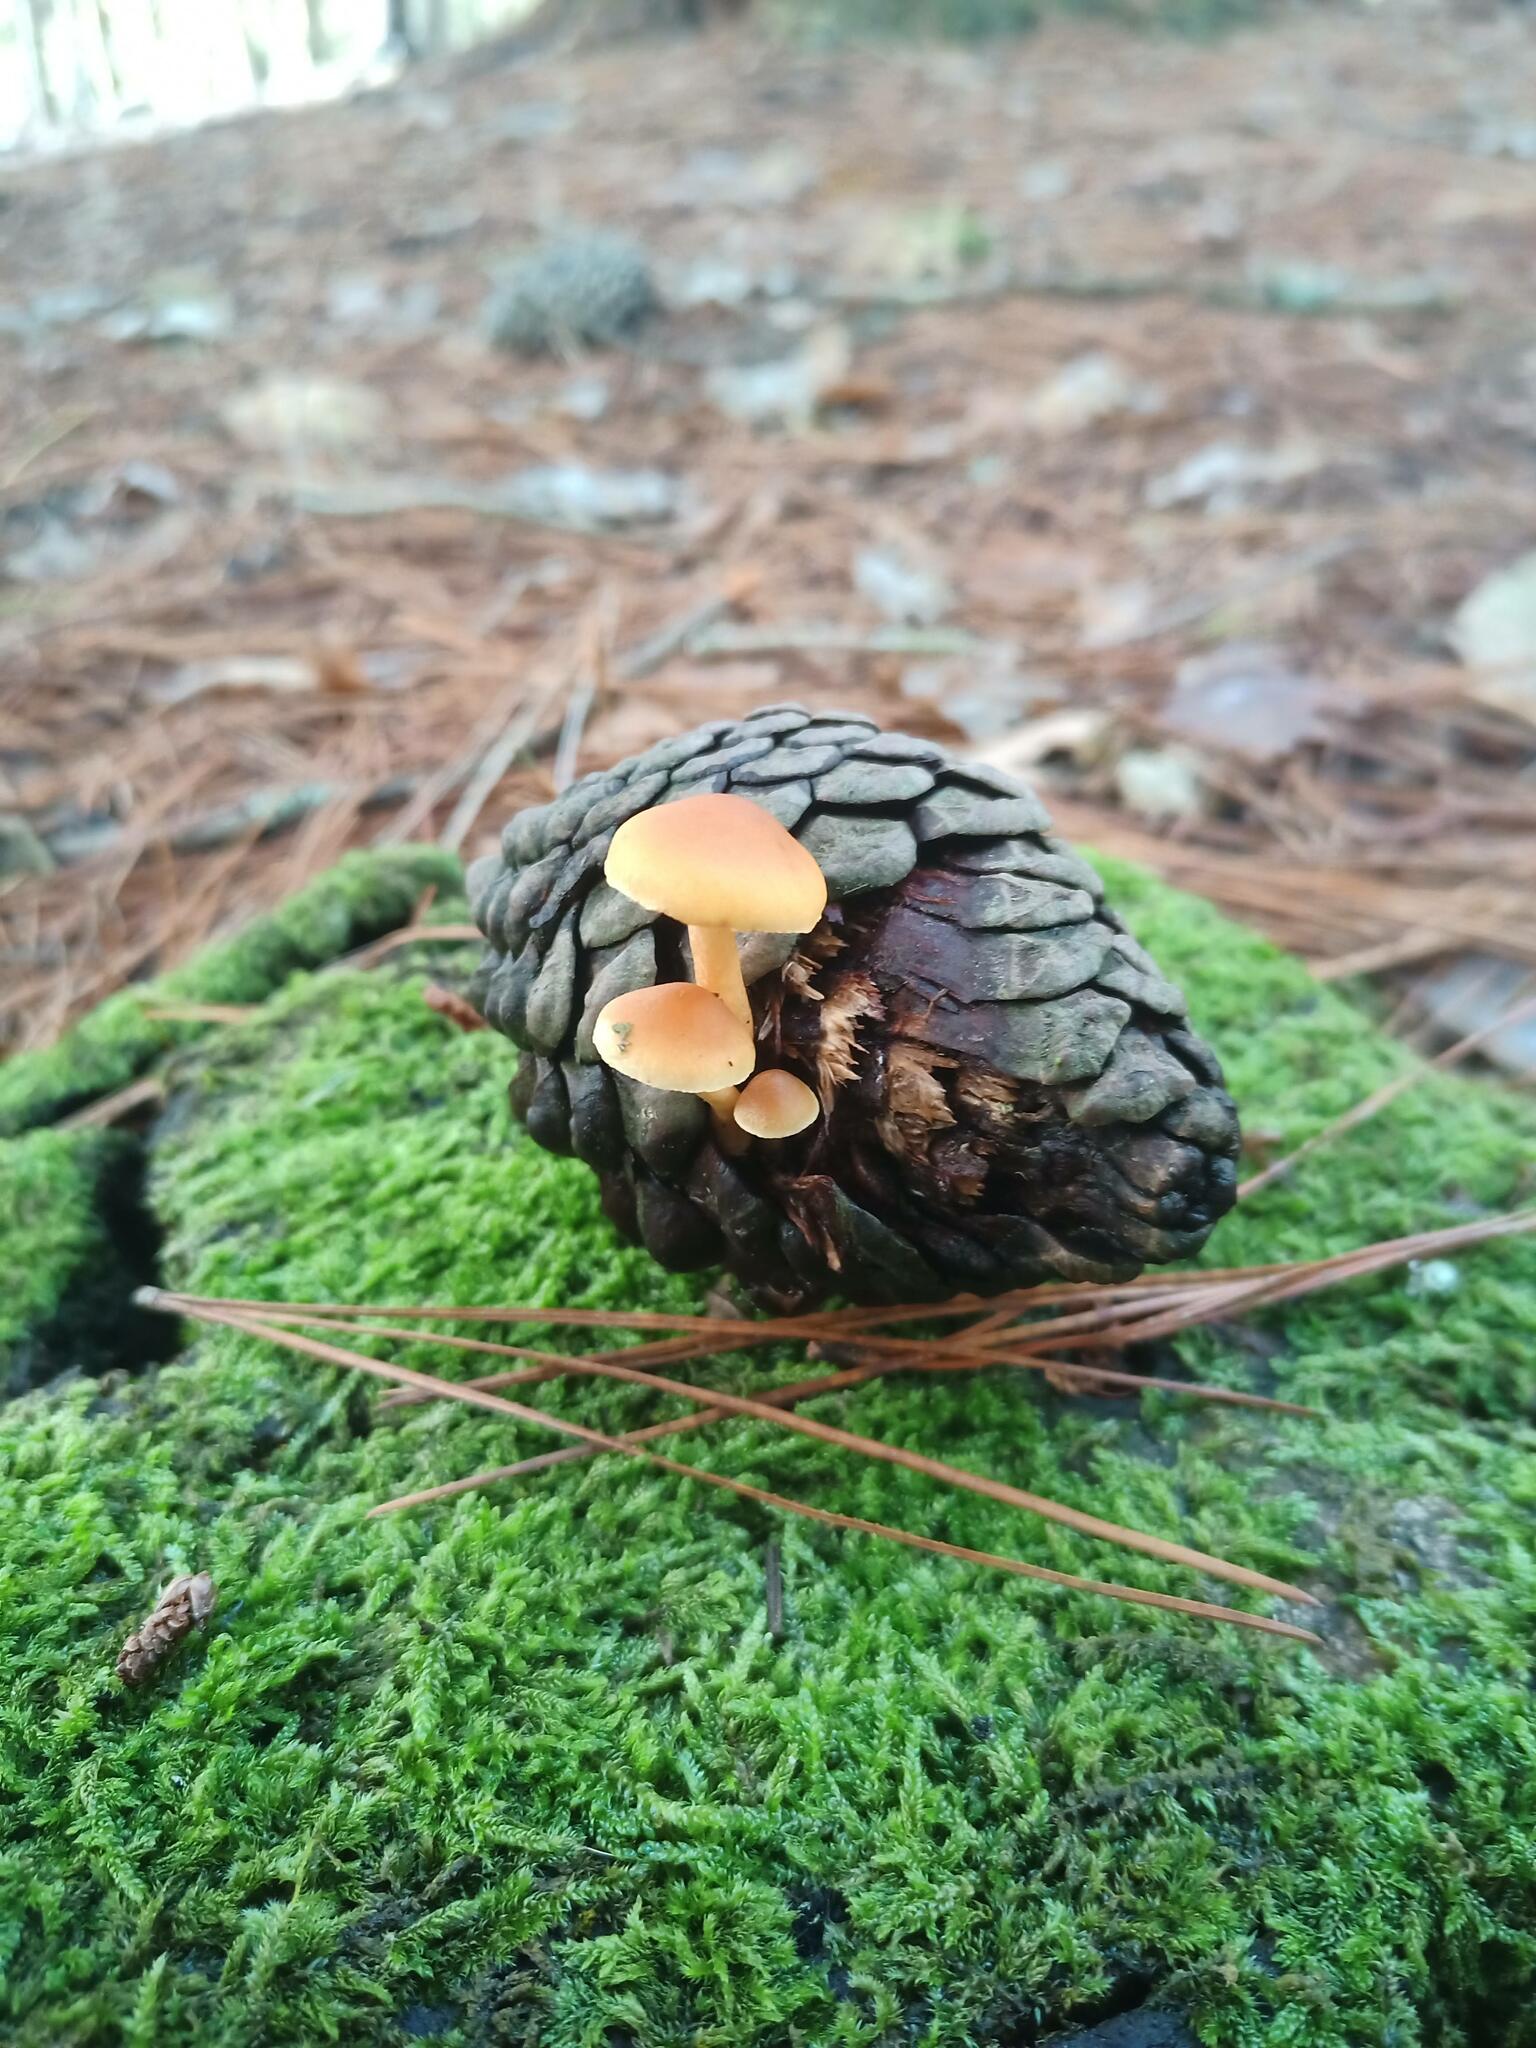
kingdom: Fungi
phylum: Basidiomycota
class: Agaricomycetes
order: Agaricales
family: Hymenogastraceae
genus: Gymnopilus
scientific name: Gymnopilus penetrans
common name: Common rustgill
